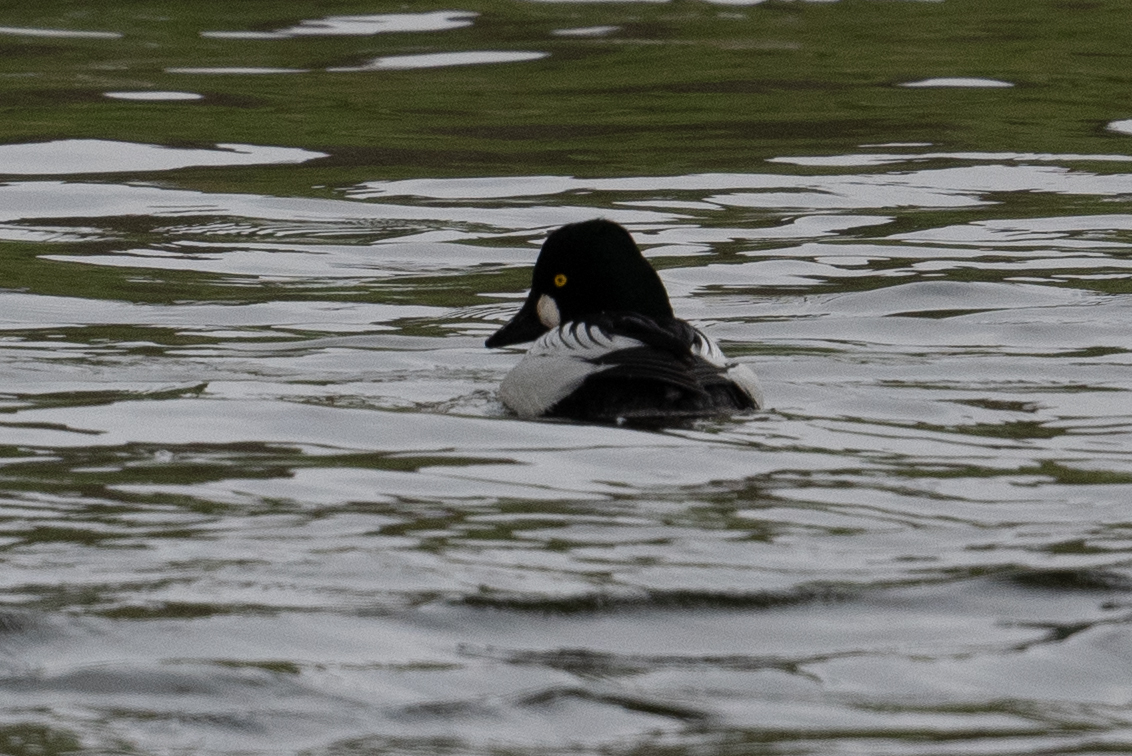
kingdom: Animalia
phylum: Chordata
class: Aves
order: Anseriformes
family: Anatidae
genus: Bucephala
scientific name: Bucephala clangula
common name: Common goldeneye
